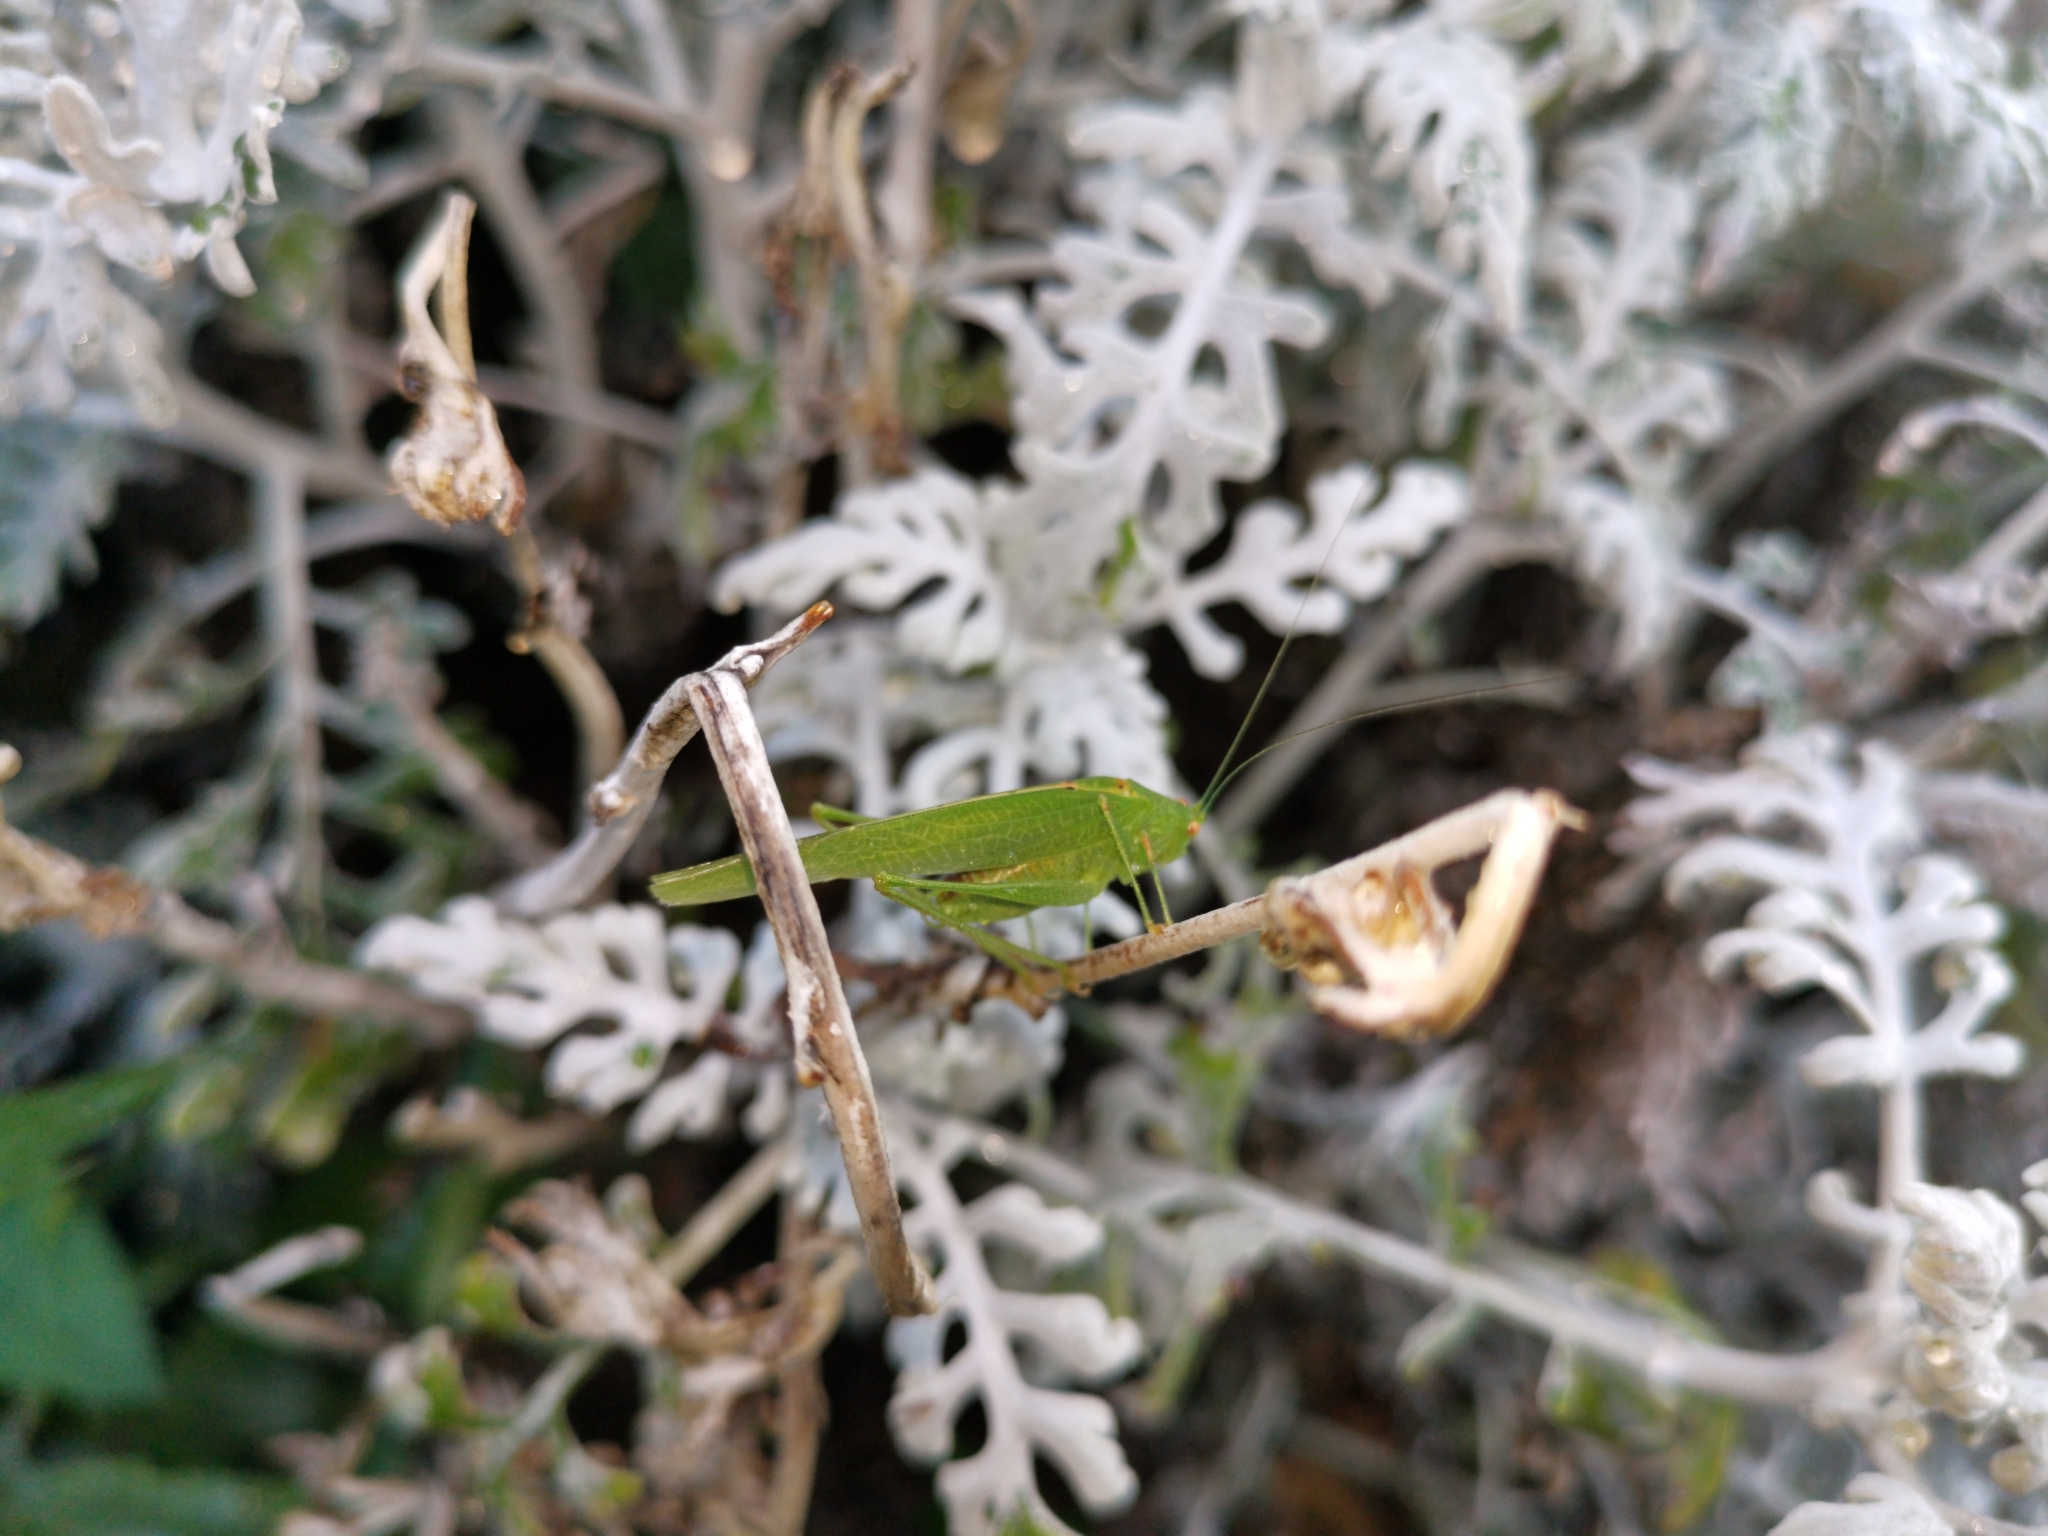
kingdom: Animalia
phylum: Arthropoda
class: Insecta
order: Orthoptera
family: Tettigoniidae
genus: Phaneroptera
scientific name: Phaneroptera nana
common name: Southern sickle bush-cricket
